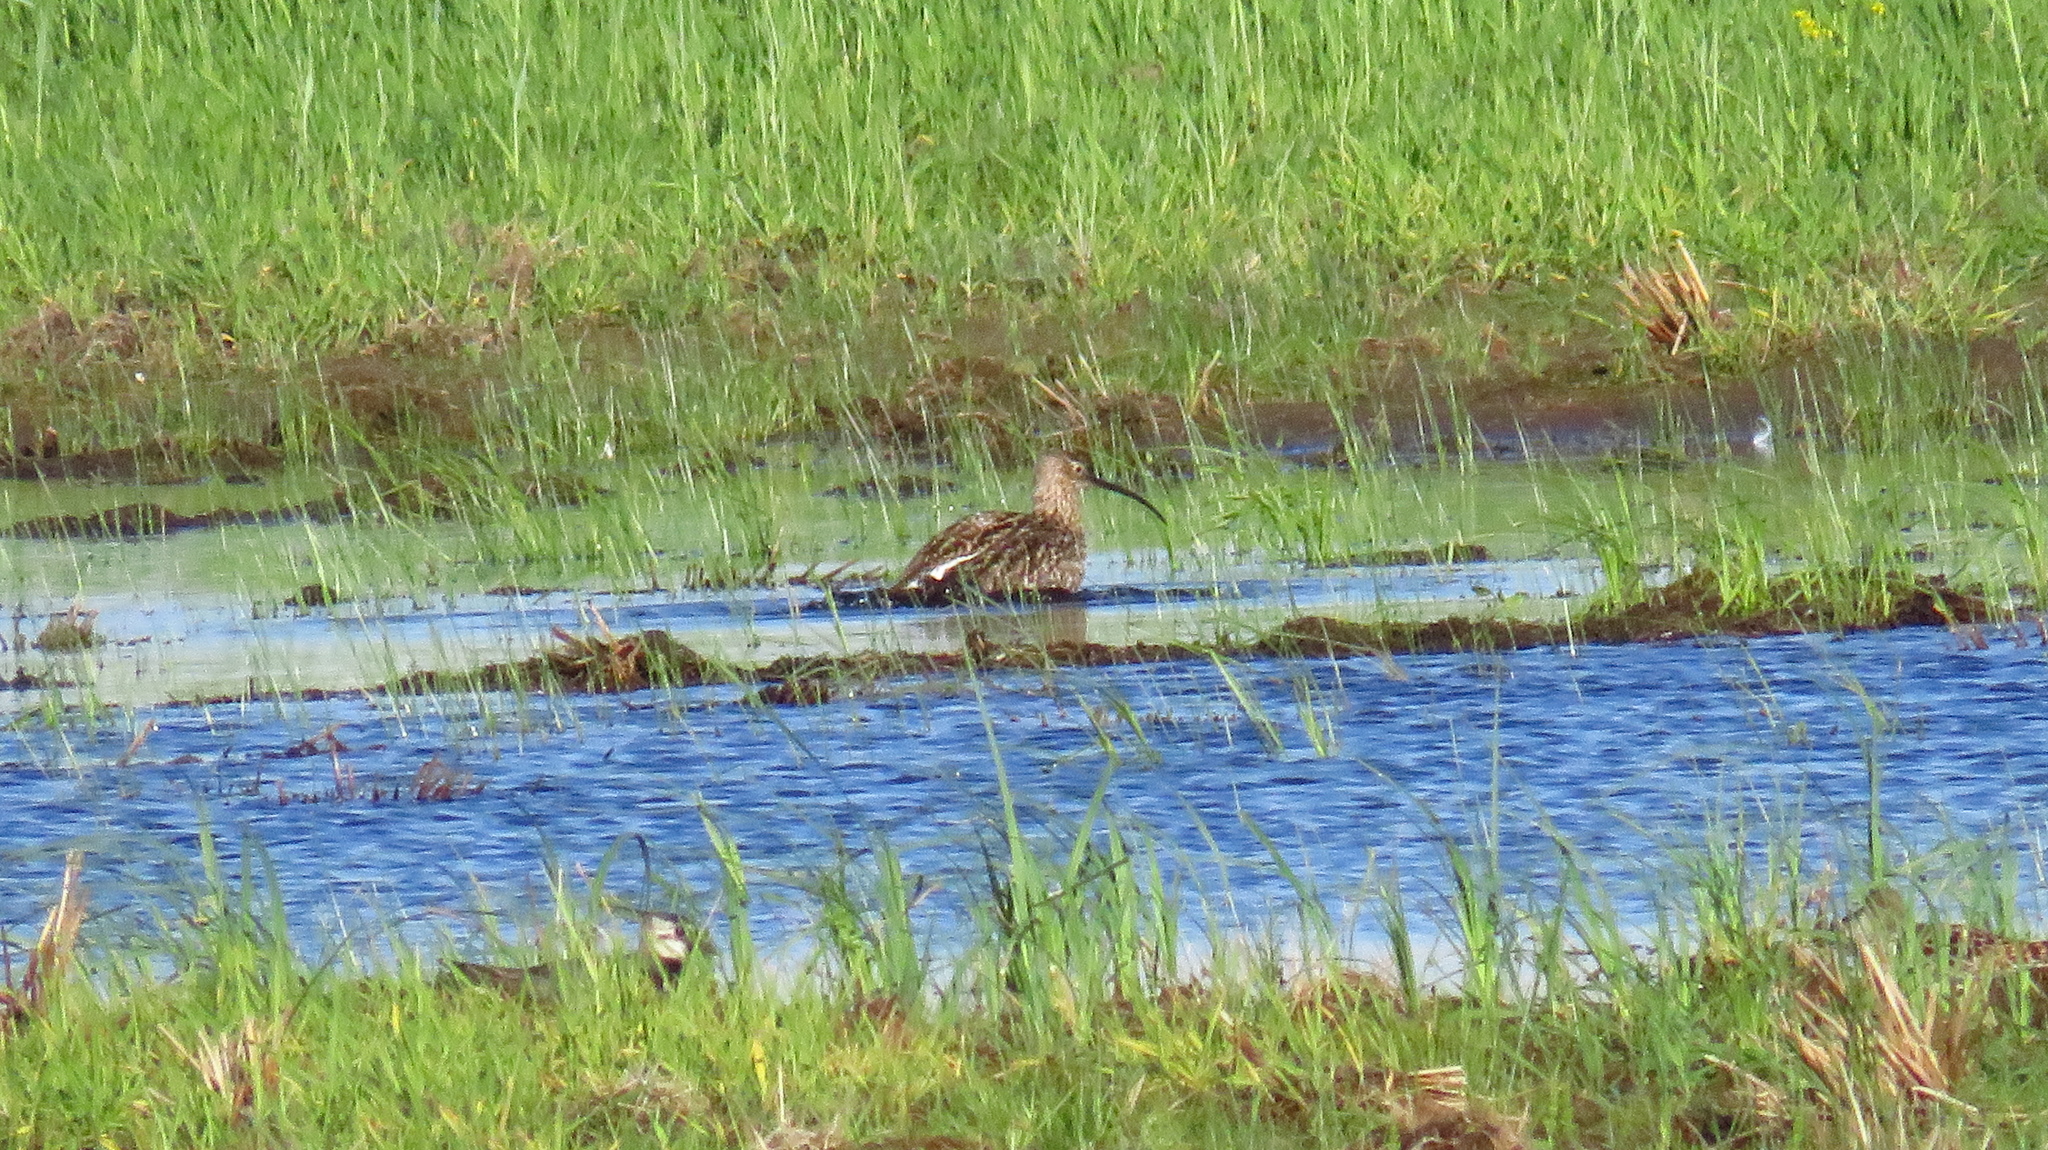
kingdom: Animalia
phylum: Chordata
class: Aves
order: Charadriiformes
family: Scolopacidae
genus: Numenius
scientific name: Numenius arquata
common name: Eurasian curlew
